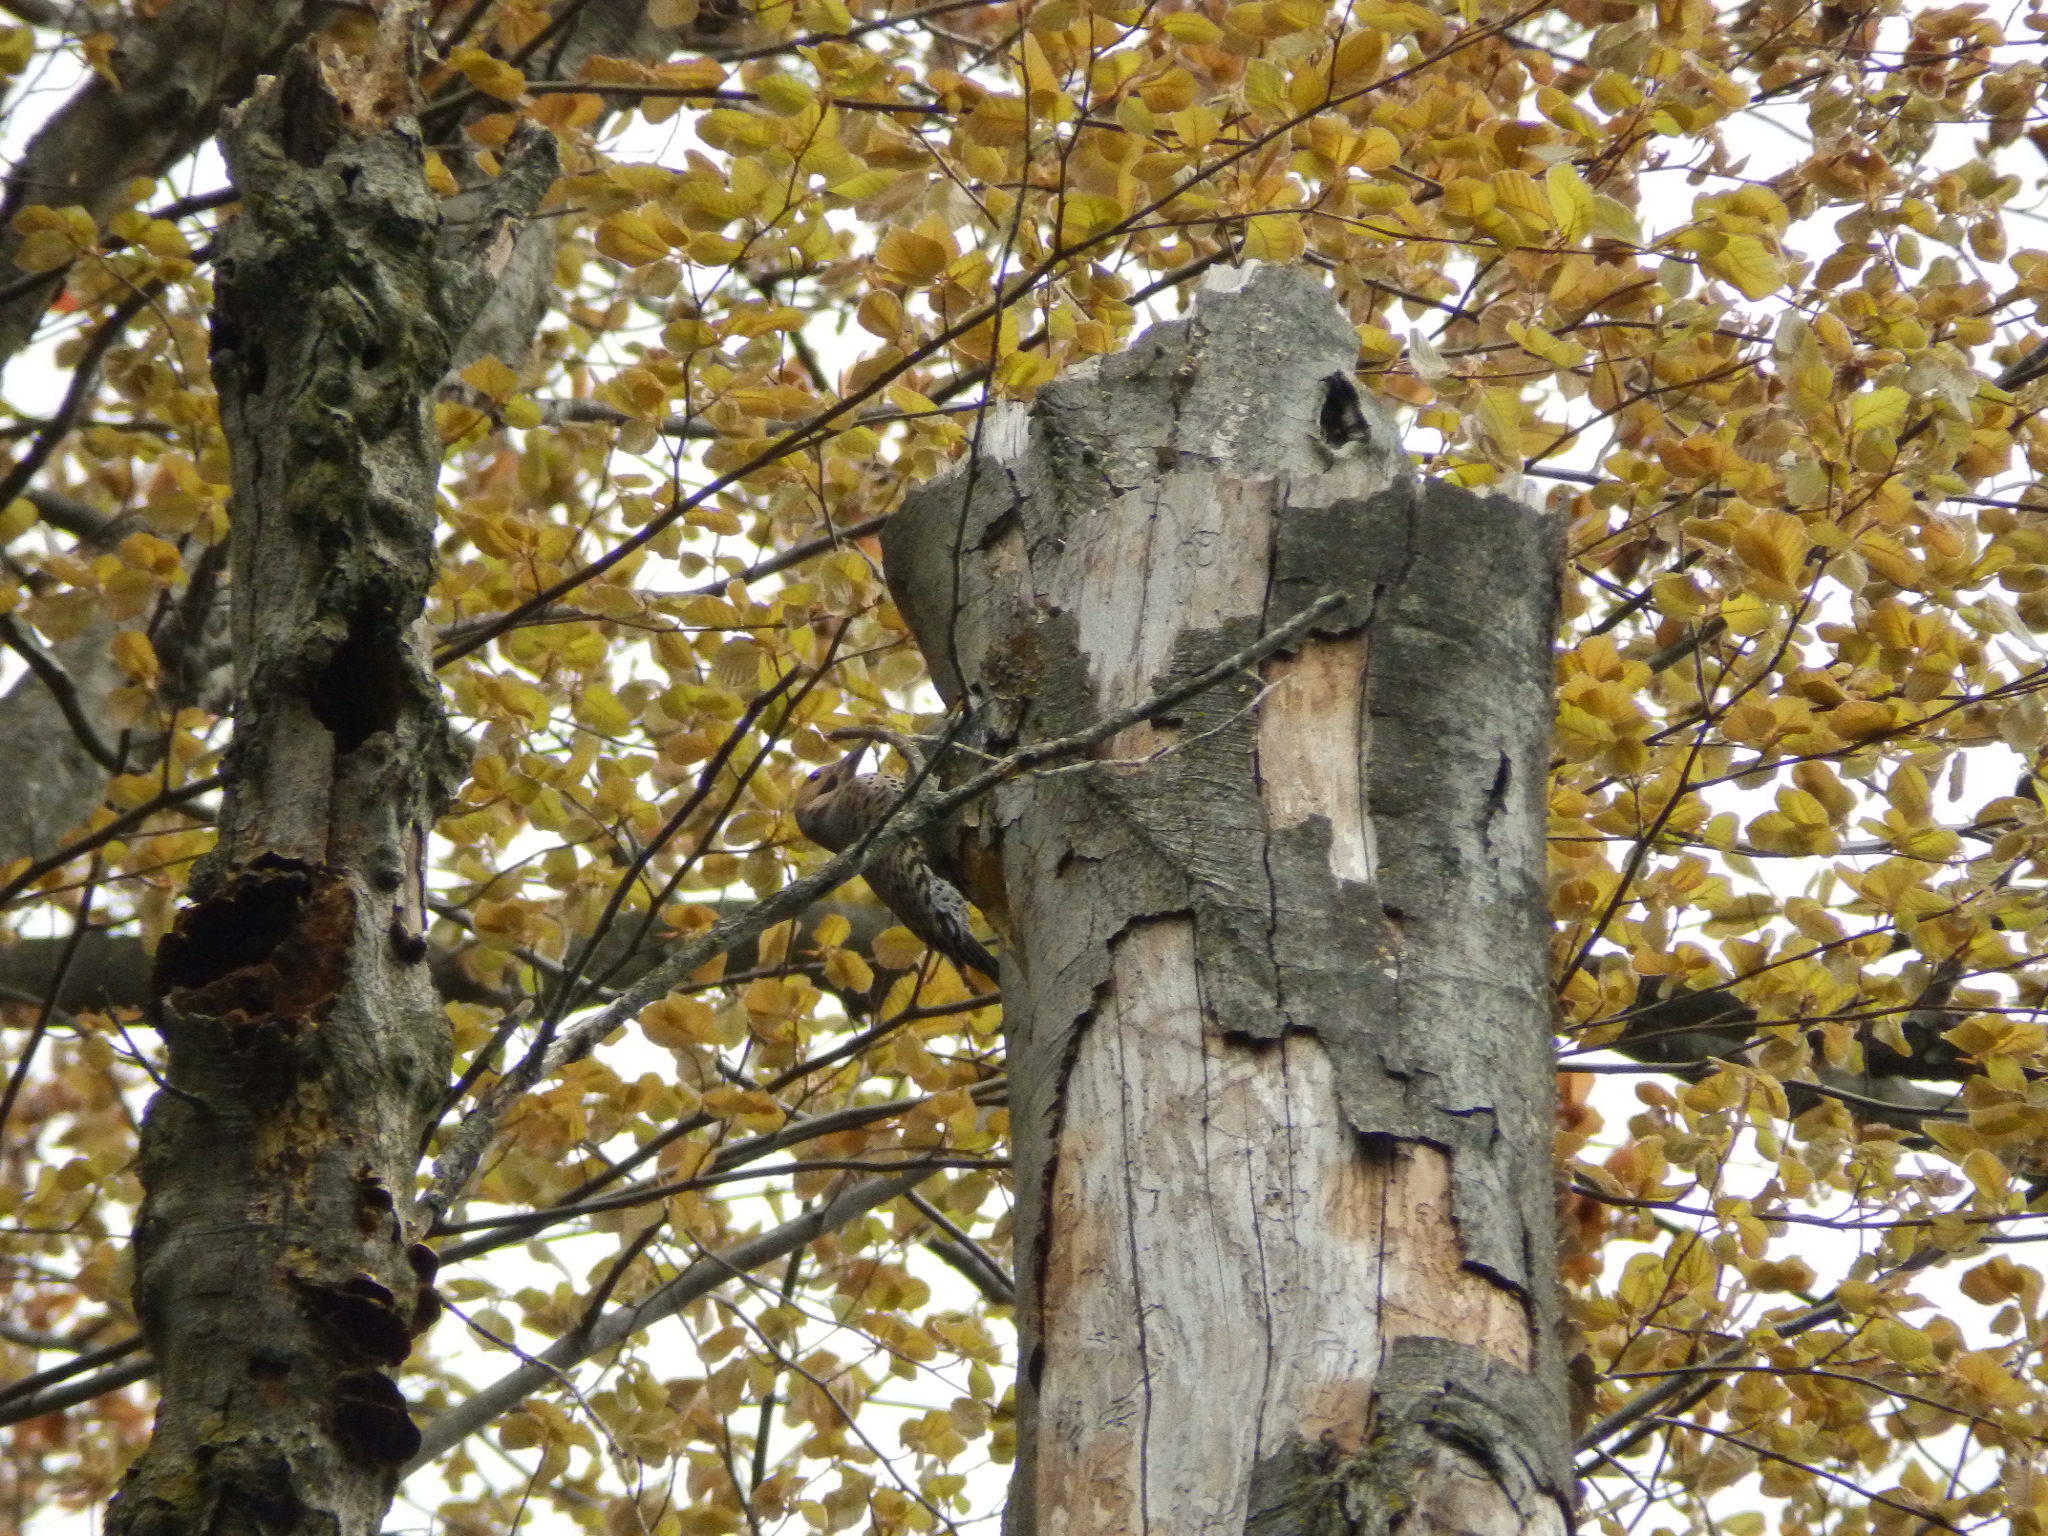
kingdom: Animalia
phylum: Chordata
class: Aves
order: Piciformes
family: Picidae
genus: Colaptes
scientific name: Colaptes auratus
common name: Northern flicker
